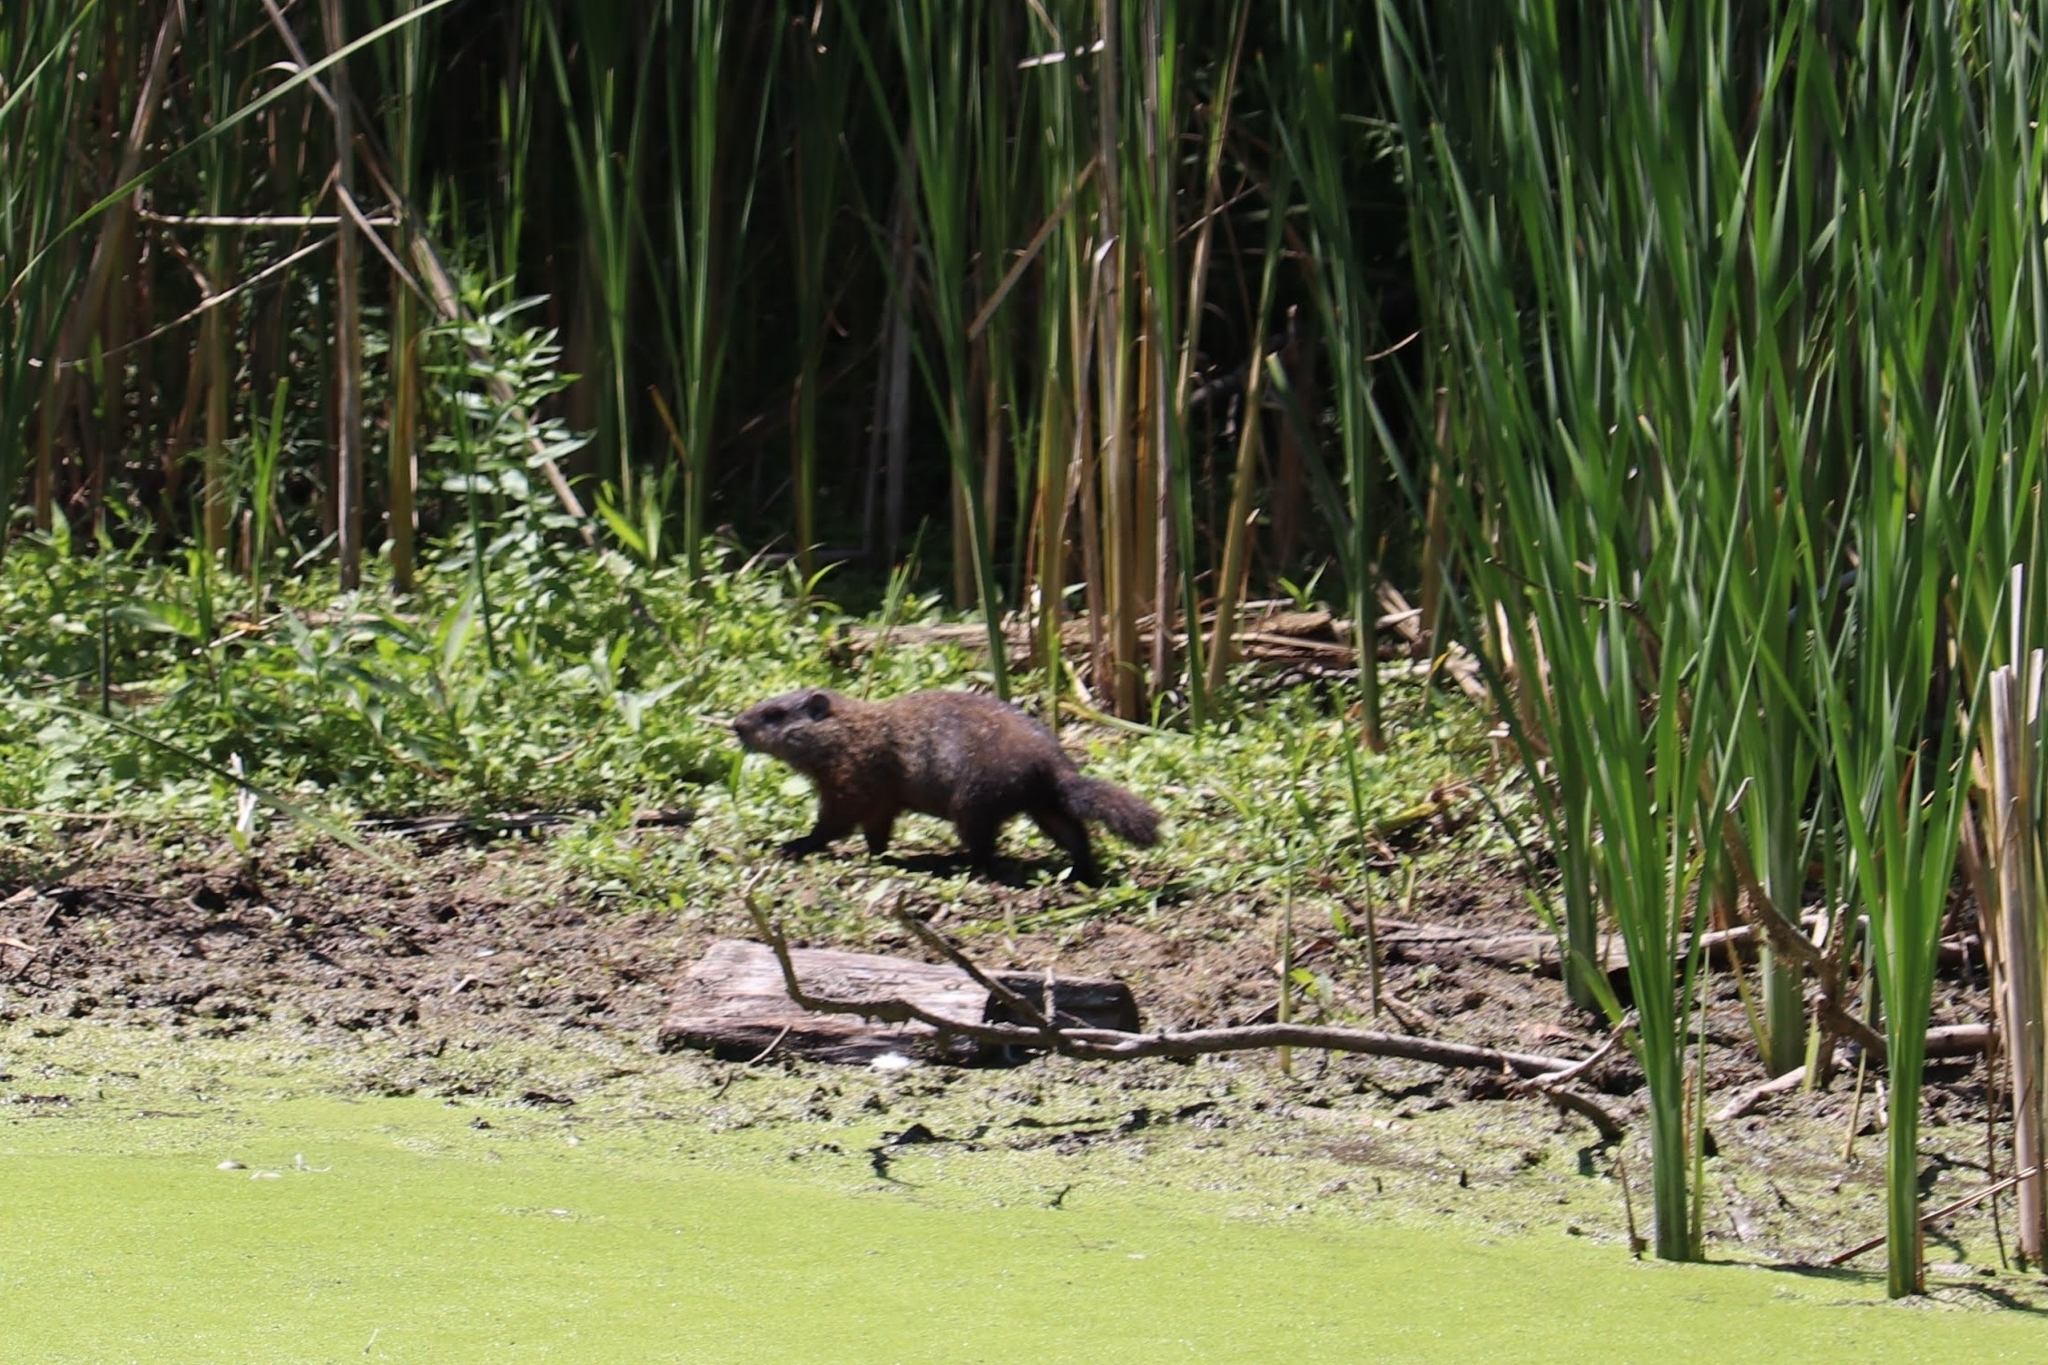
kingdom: Animalia
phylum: Chordata
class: Mammalia
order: Rodentia
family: Sciuridae
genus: Marmota
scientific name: Marmota monax
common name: Groundhog
